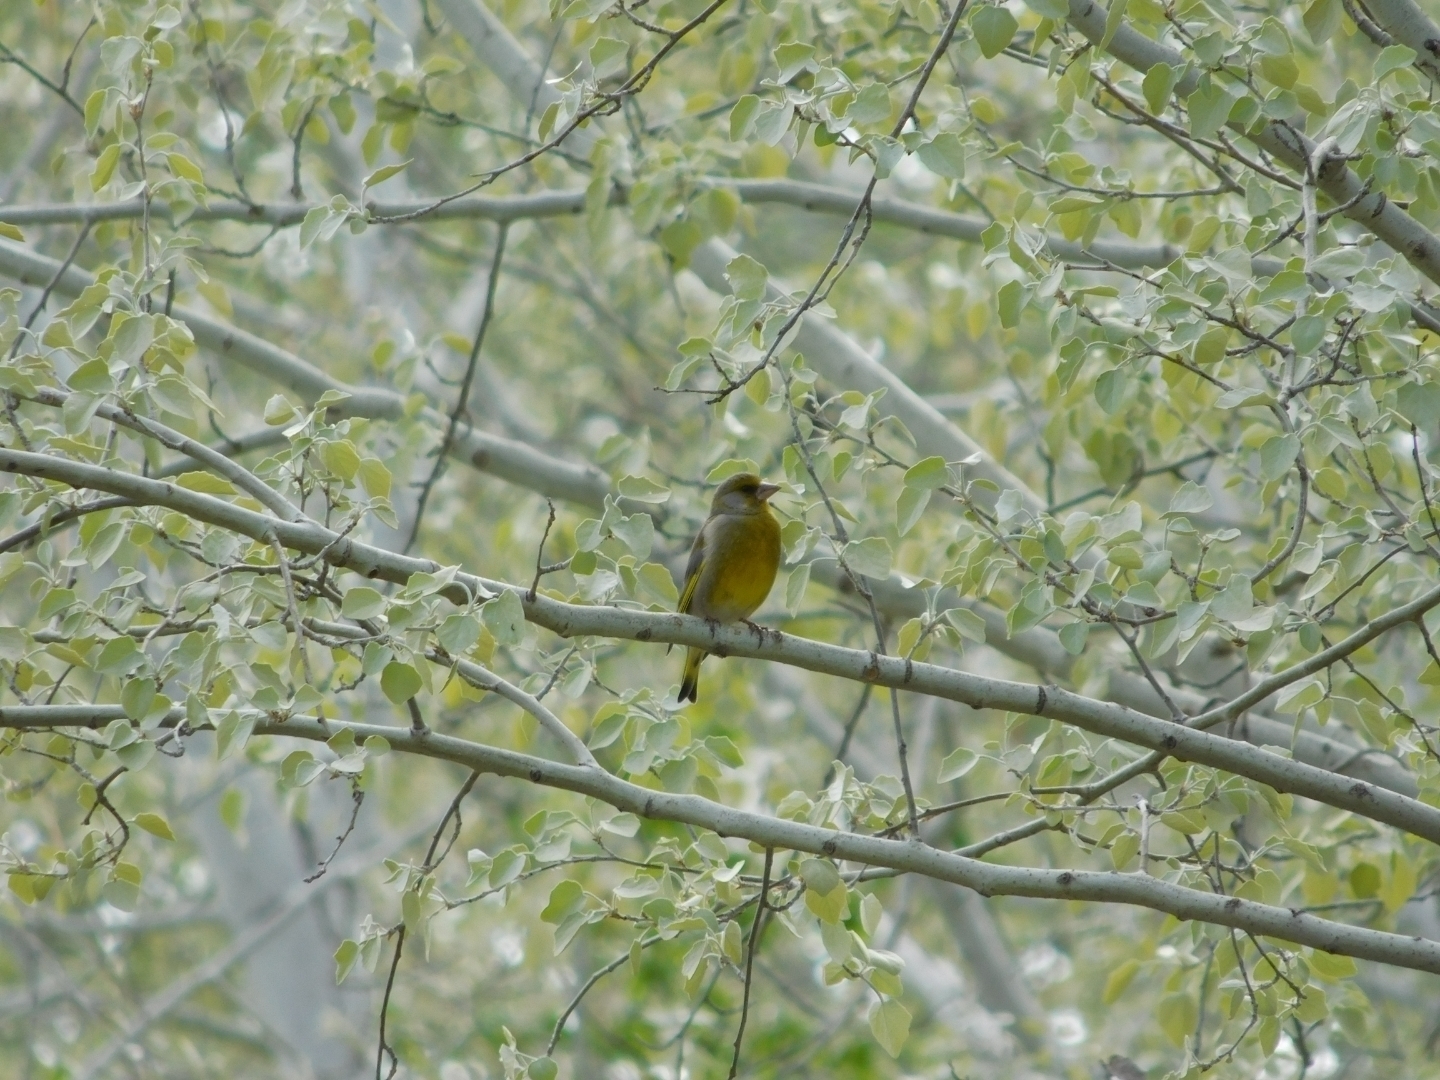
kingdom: Plantae
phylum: Tracheophyta
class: Liliopsida
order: Poales
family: Poaceae
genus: Chloris
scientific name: Chloris chloris
